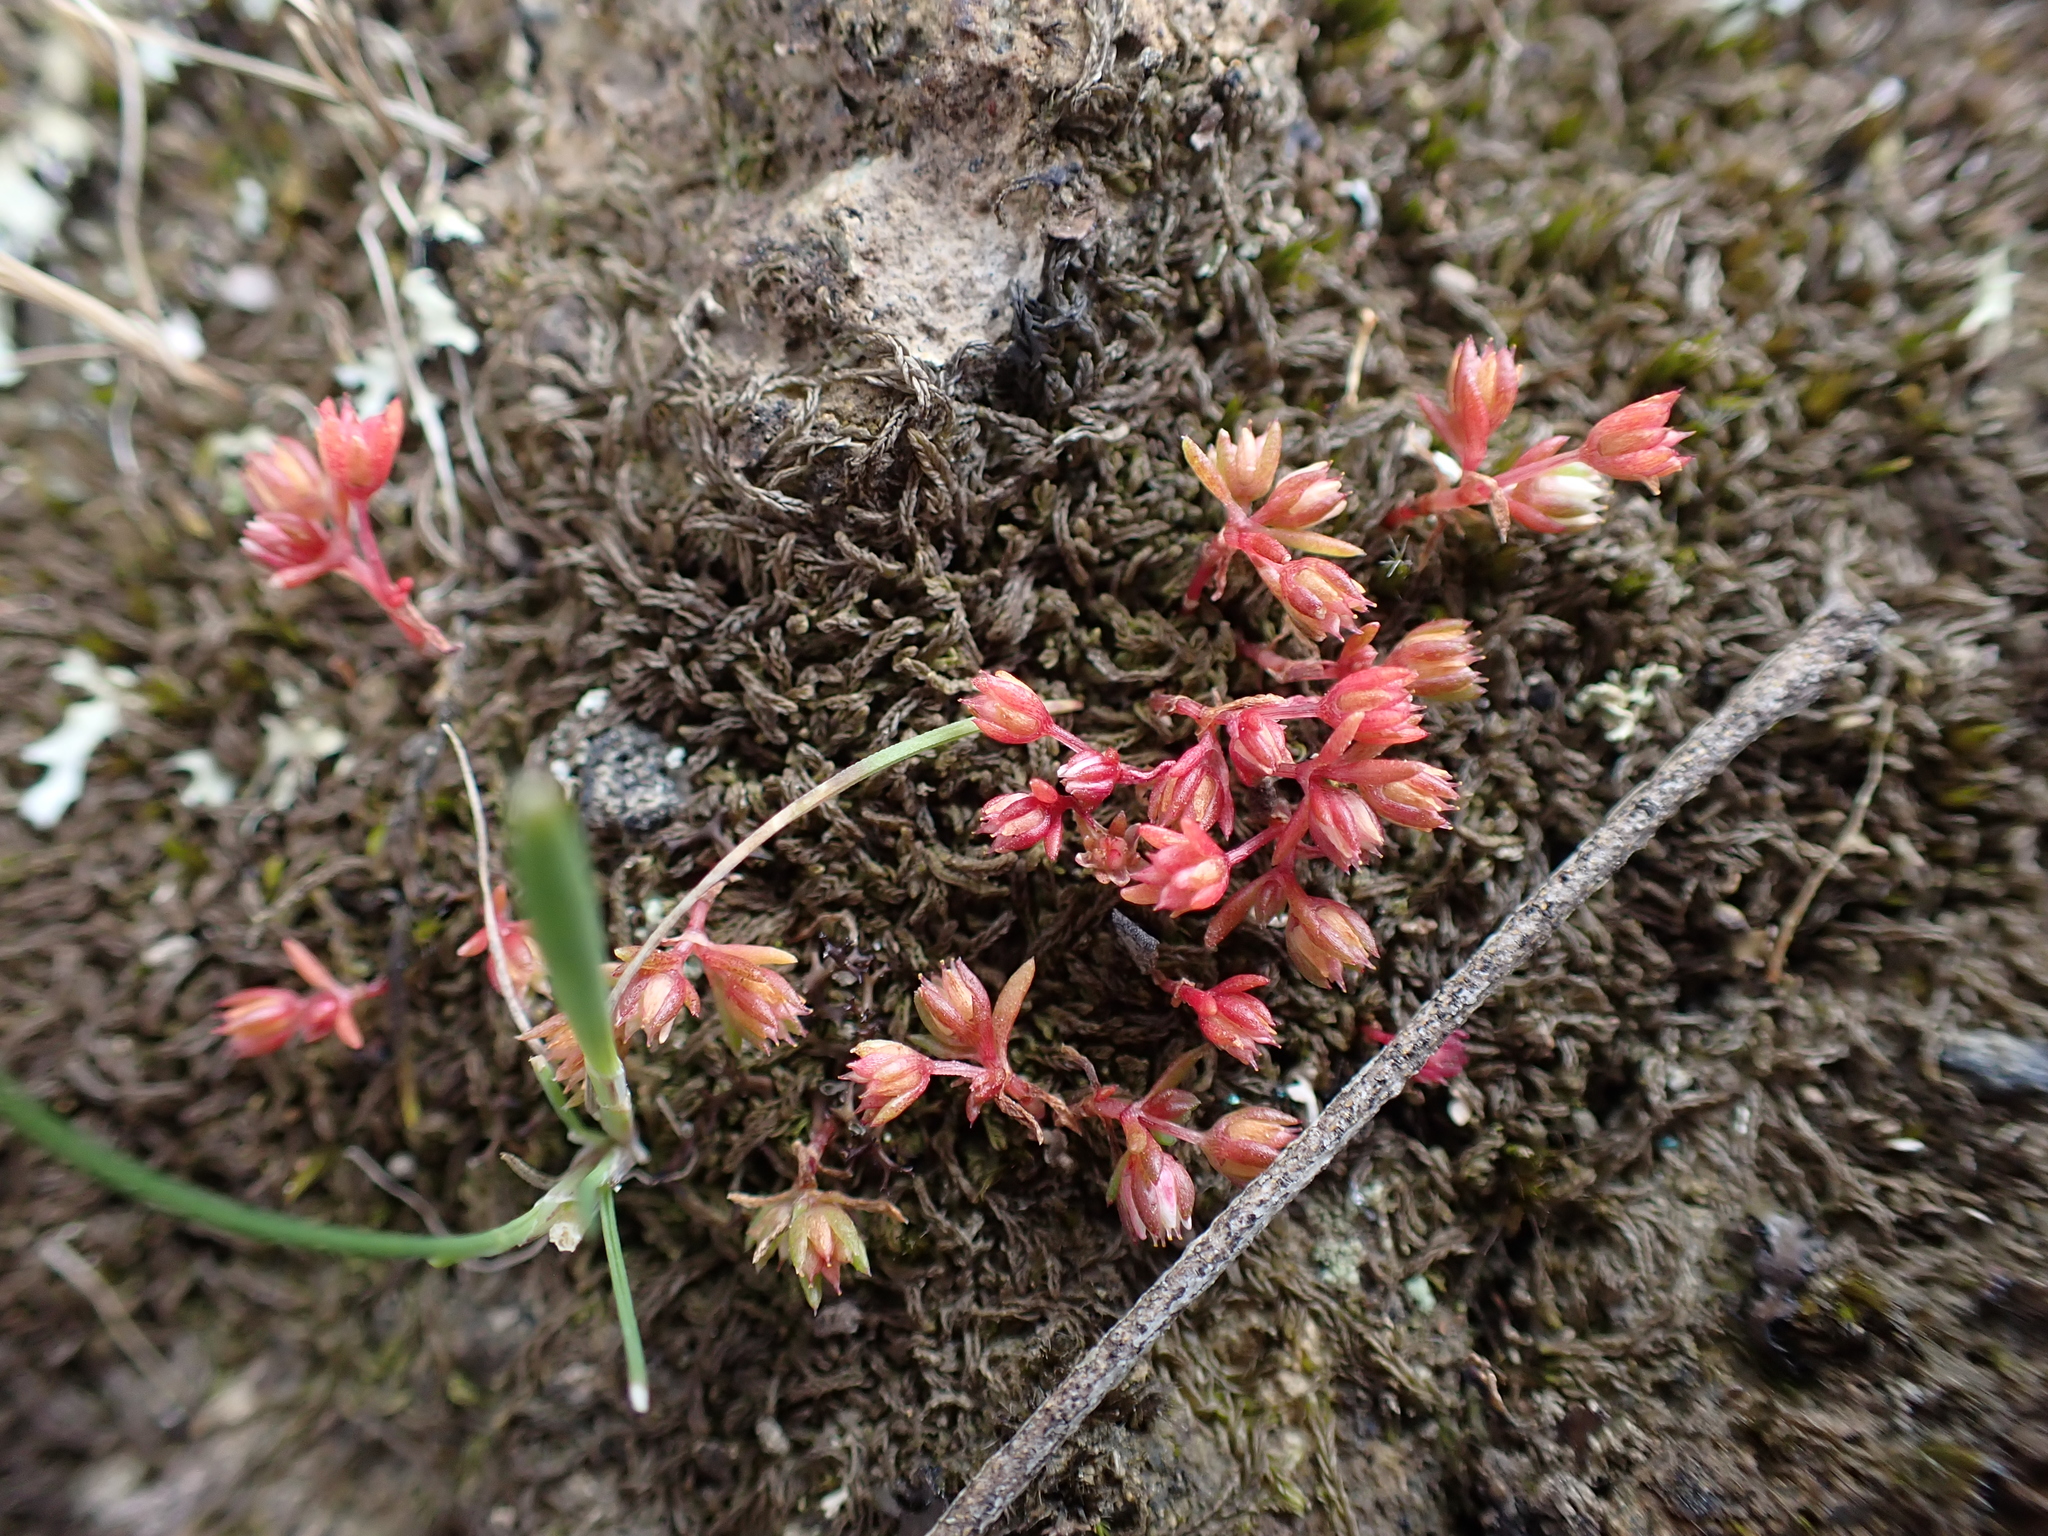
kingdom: Plantae
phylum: Tracheophyta
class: Magnoliopsida
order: Saxifragales
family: Crassulaceae
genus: Crassula
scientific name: Crassula decumbens
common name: Scilly pigmyweed
